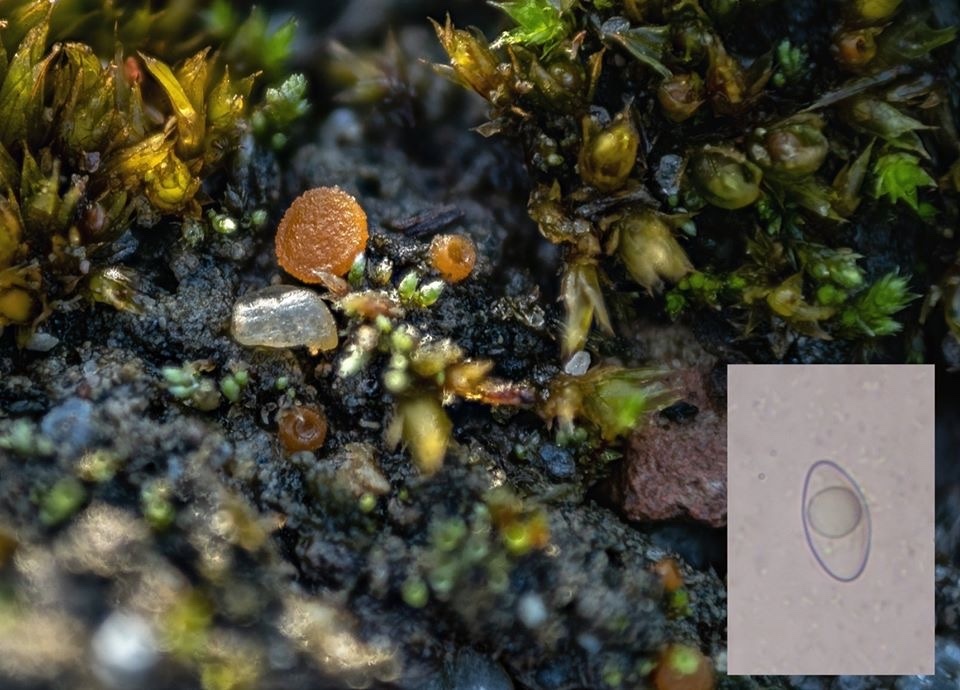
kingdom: Fungi
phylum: Ascomycota
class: Pezizomycetes
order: Pezizales
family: Pyronemataceae
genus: Inermisia
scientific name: Inermisia gyalectoides
